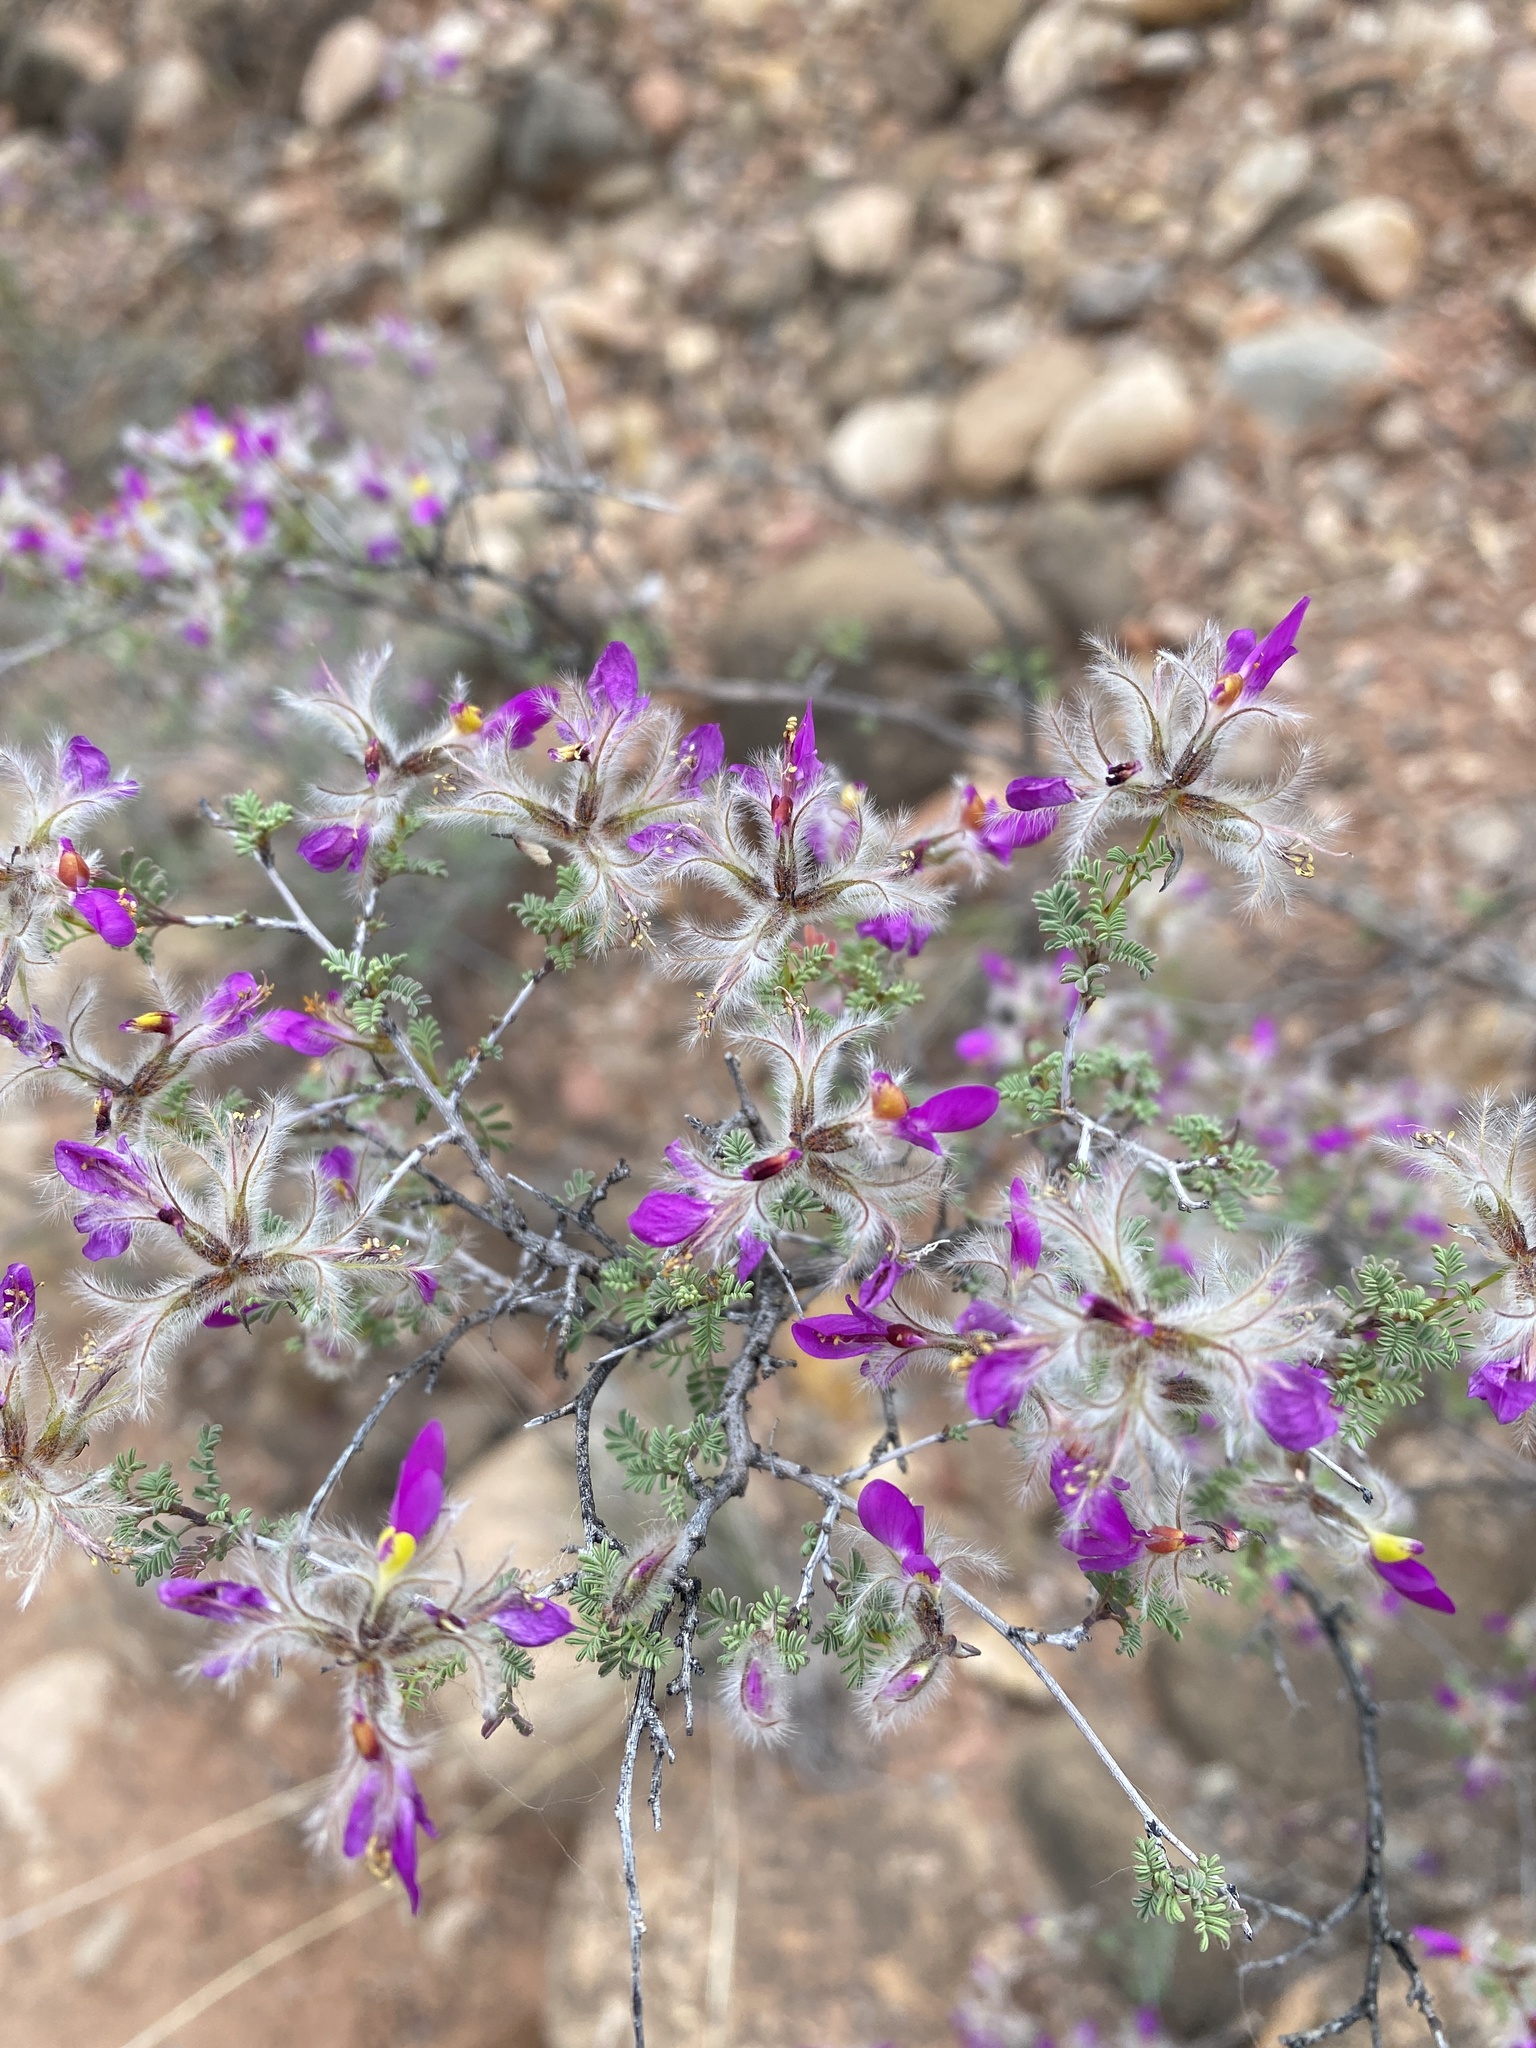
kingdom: Plantae
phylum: Tracheophyta
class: Magnoliopsida
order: Fabales
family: Fabaceae
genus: Dalea
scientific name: Dalea formosa
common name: Feather-plume dalea
